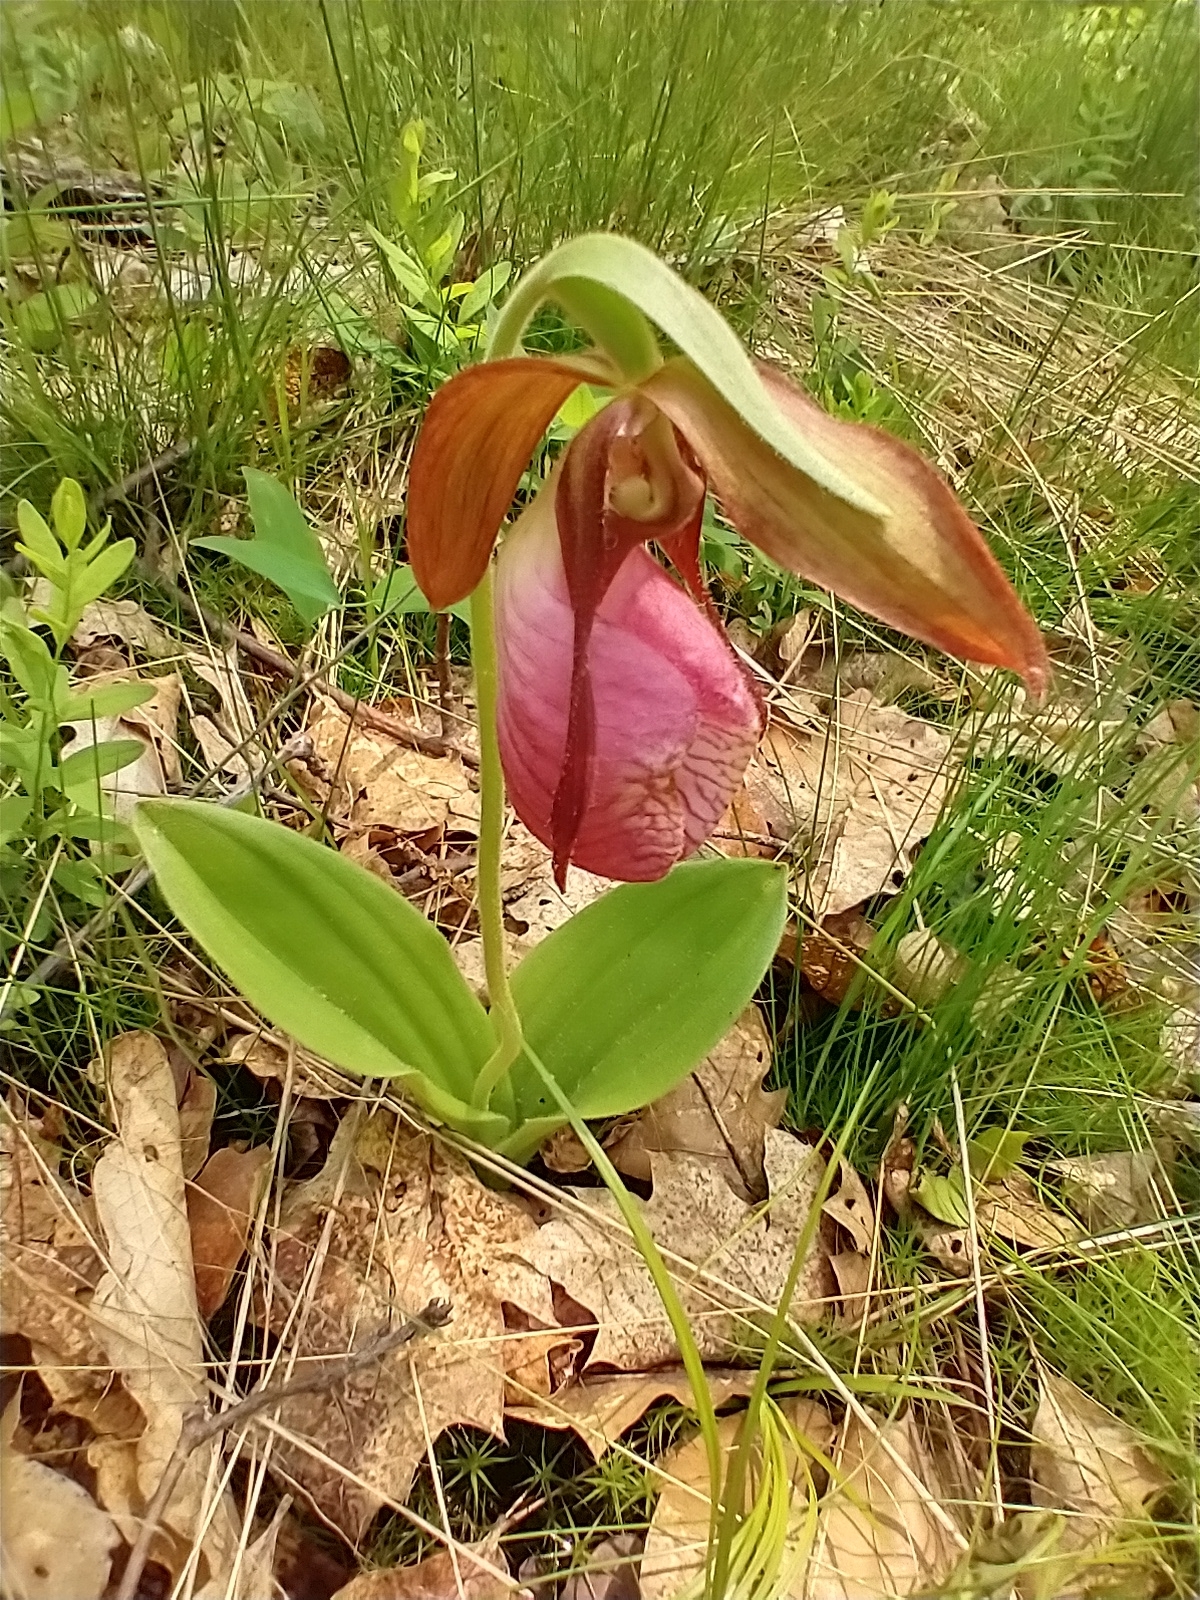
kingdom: Plantae
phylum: Tracheophyta
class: Liliopsida
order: Asparagales
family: Orchidaceae
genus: Cypripedium
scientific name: Cypripedium acaule
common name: Pink lady's-slipper
